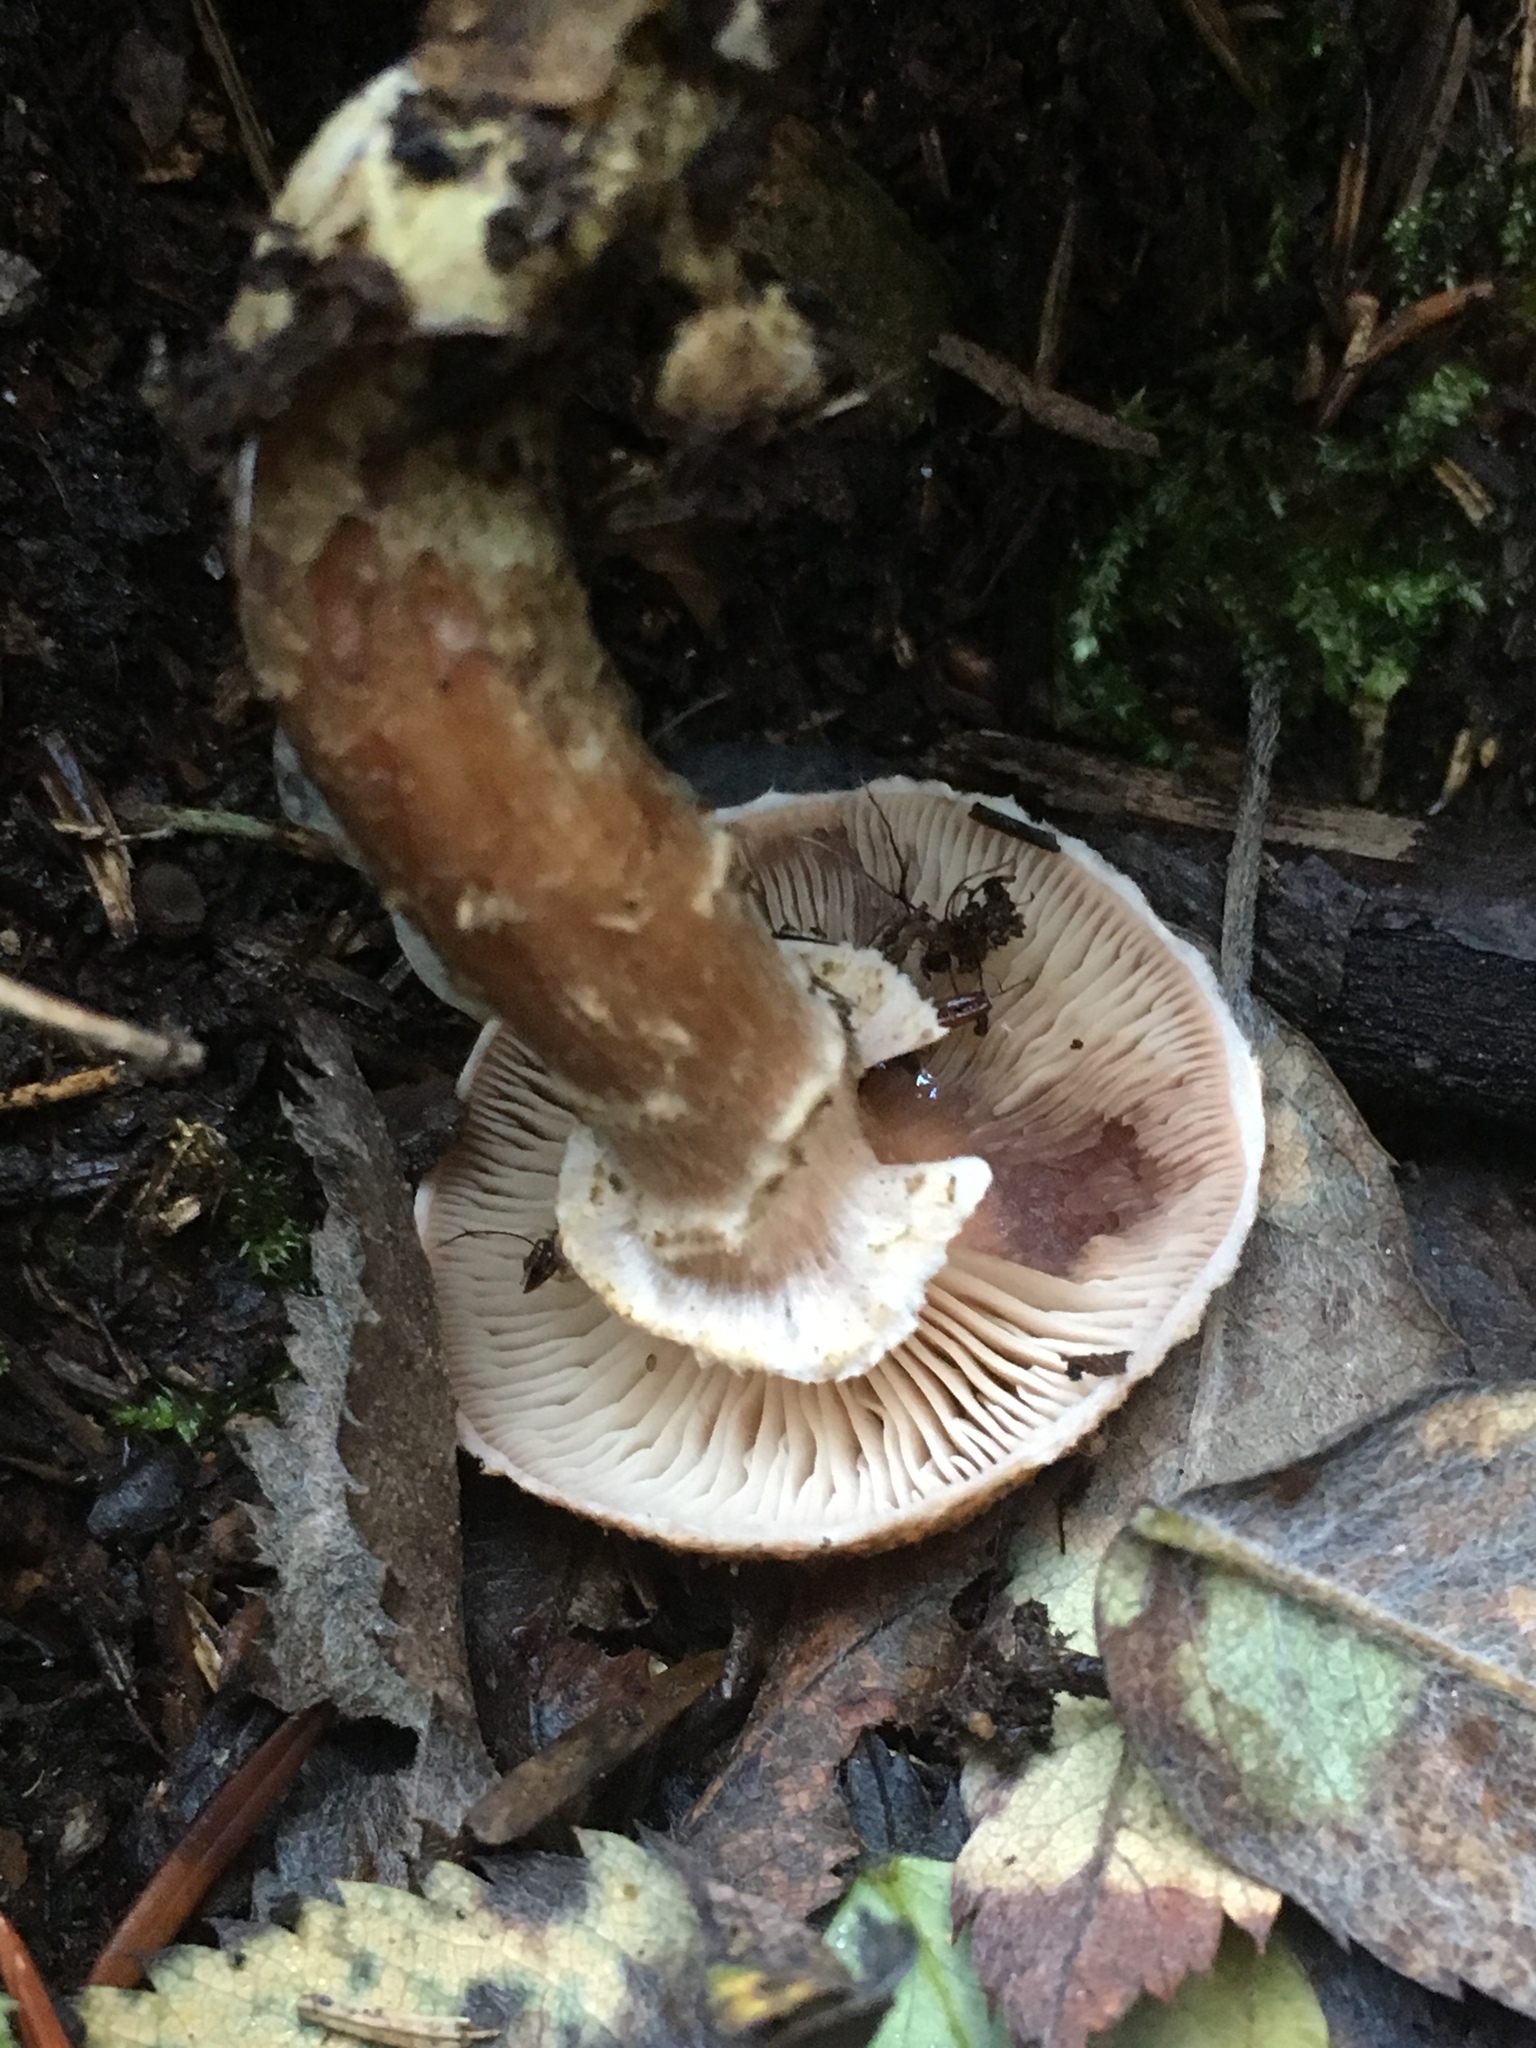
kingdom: Fungi
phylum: Basidiomycota
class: Agaricomycetes
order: Agaricales
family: Physalacriaceae
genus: Armillaria
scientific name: Armillaria mellea
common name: Honey fungus
